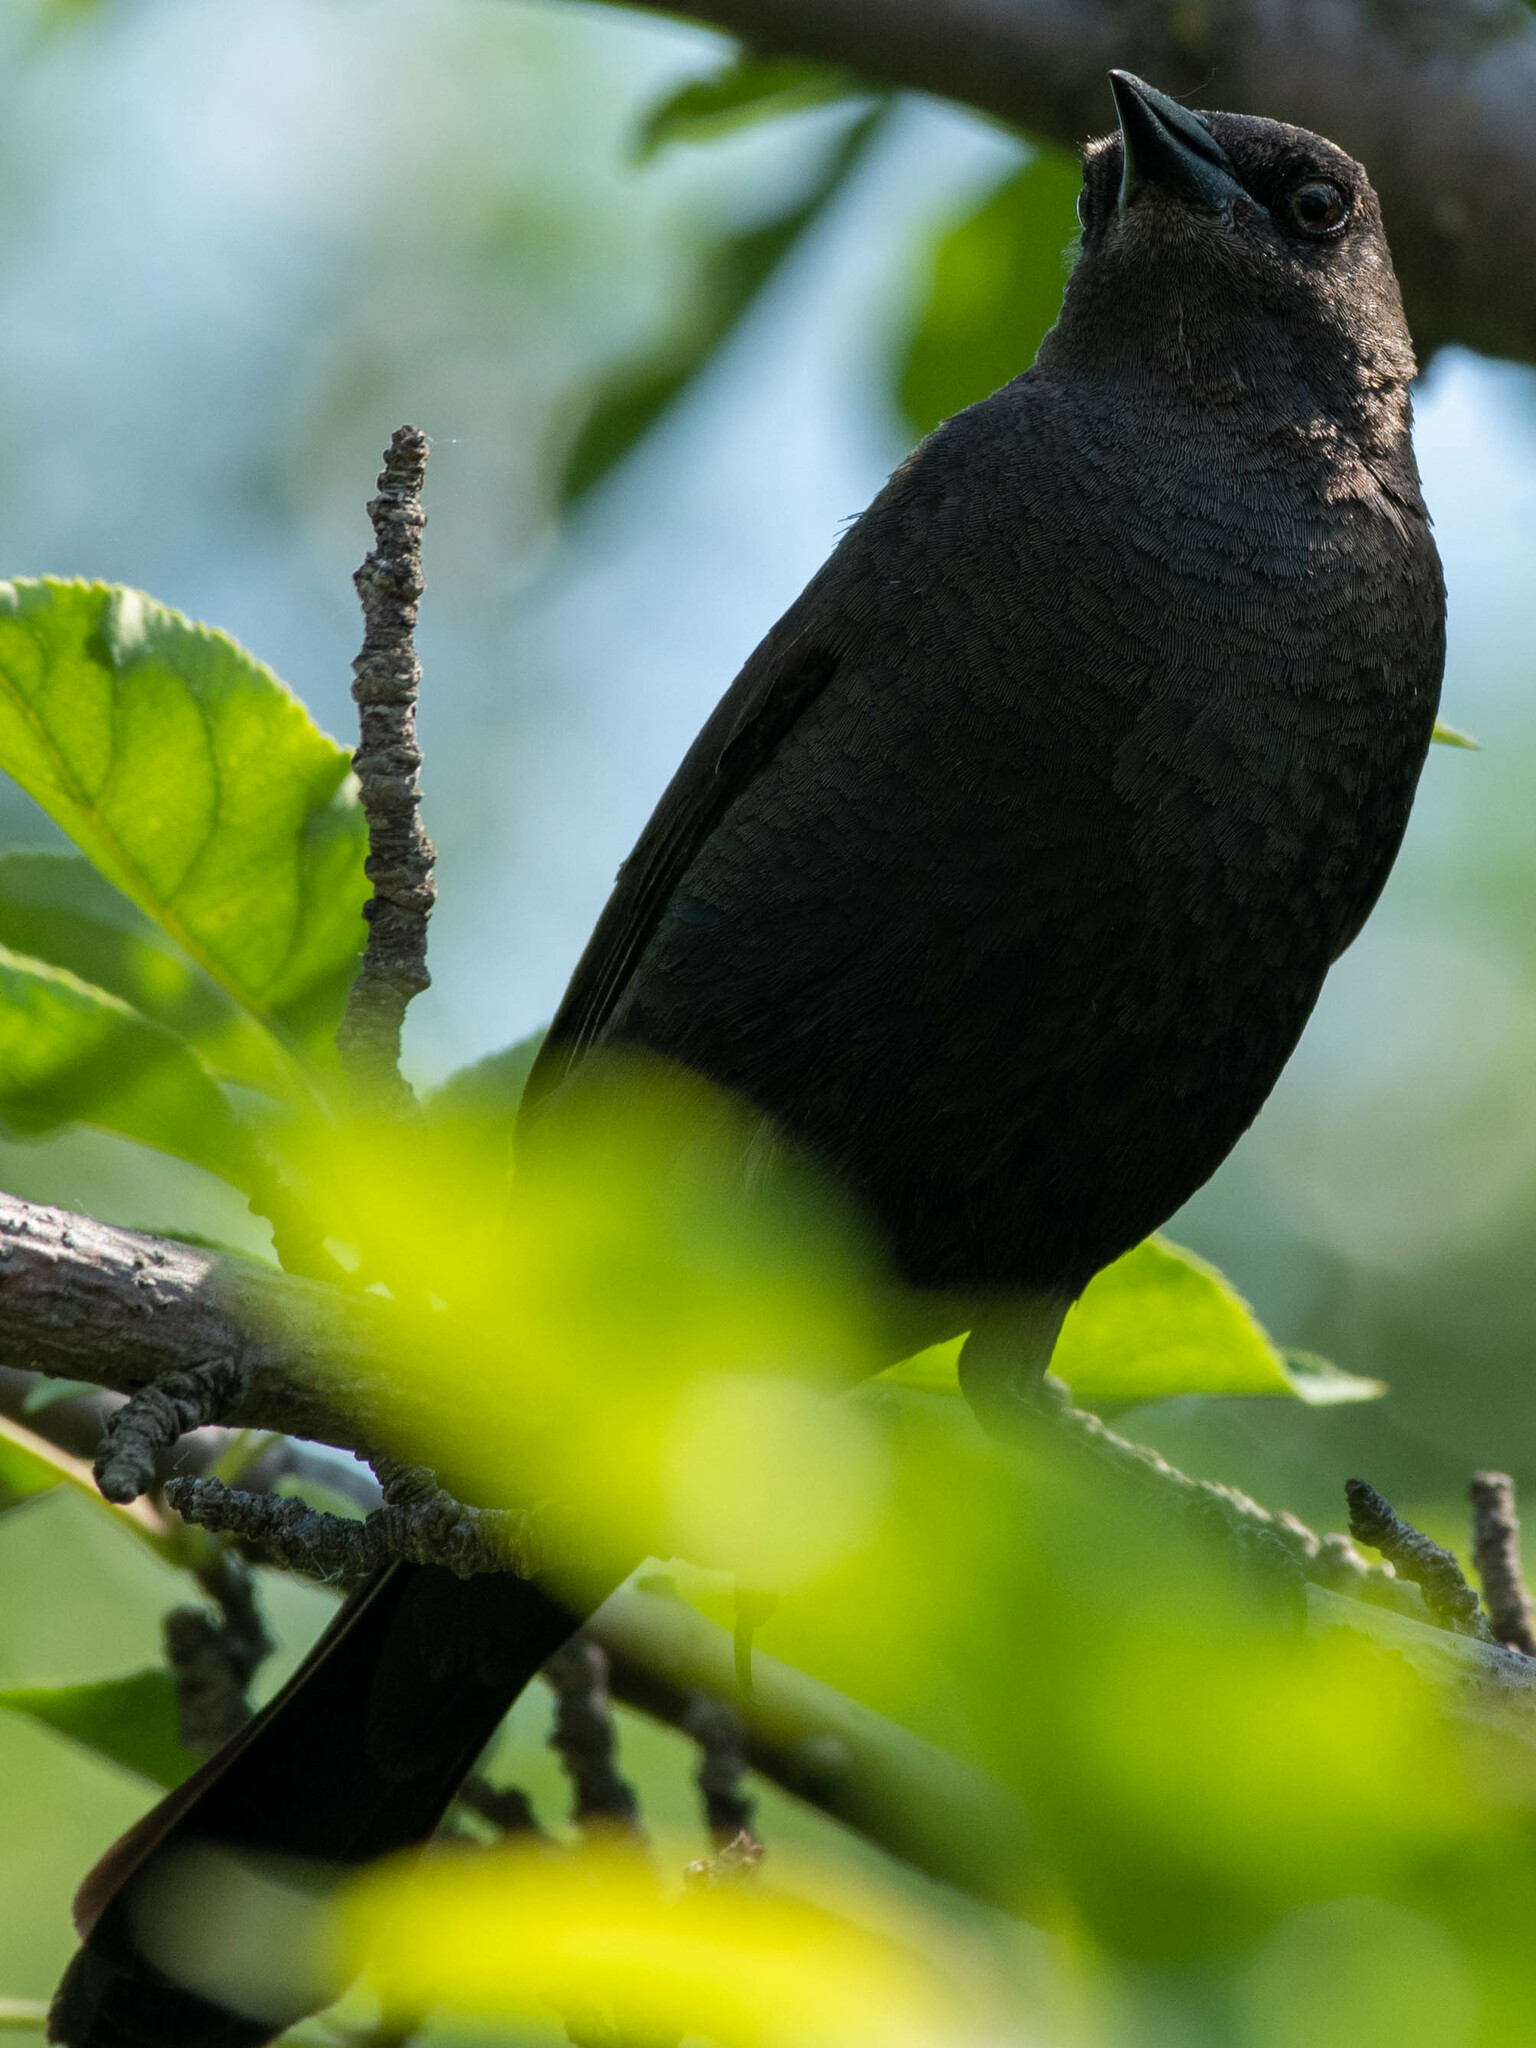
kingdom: Animalia
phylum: Chordata
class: Aves
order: Passeriformes
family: Icteridae
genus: Euphagus
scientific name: Euphagus cyanocephalus
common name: Brewer's blackbird
